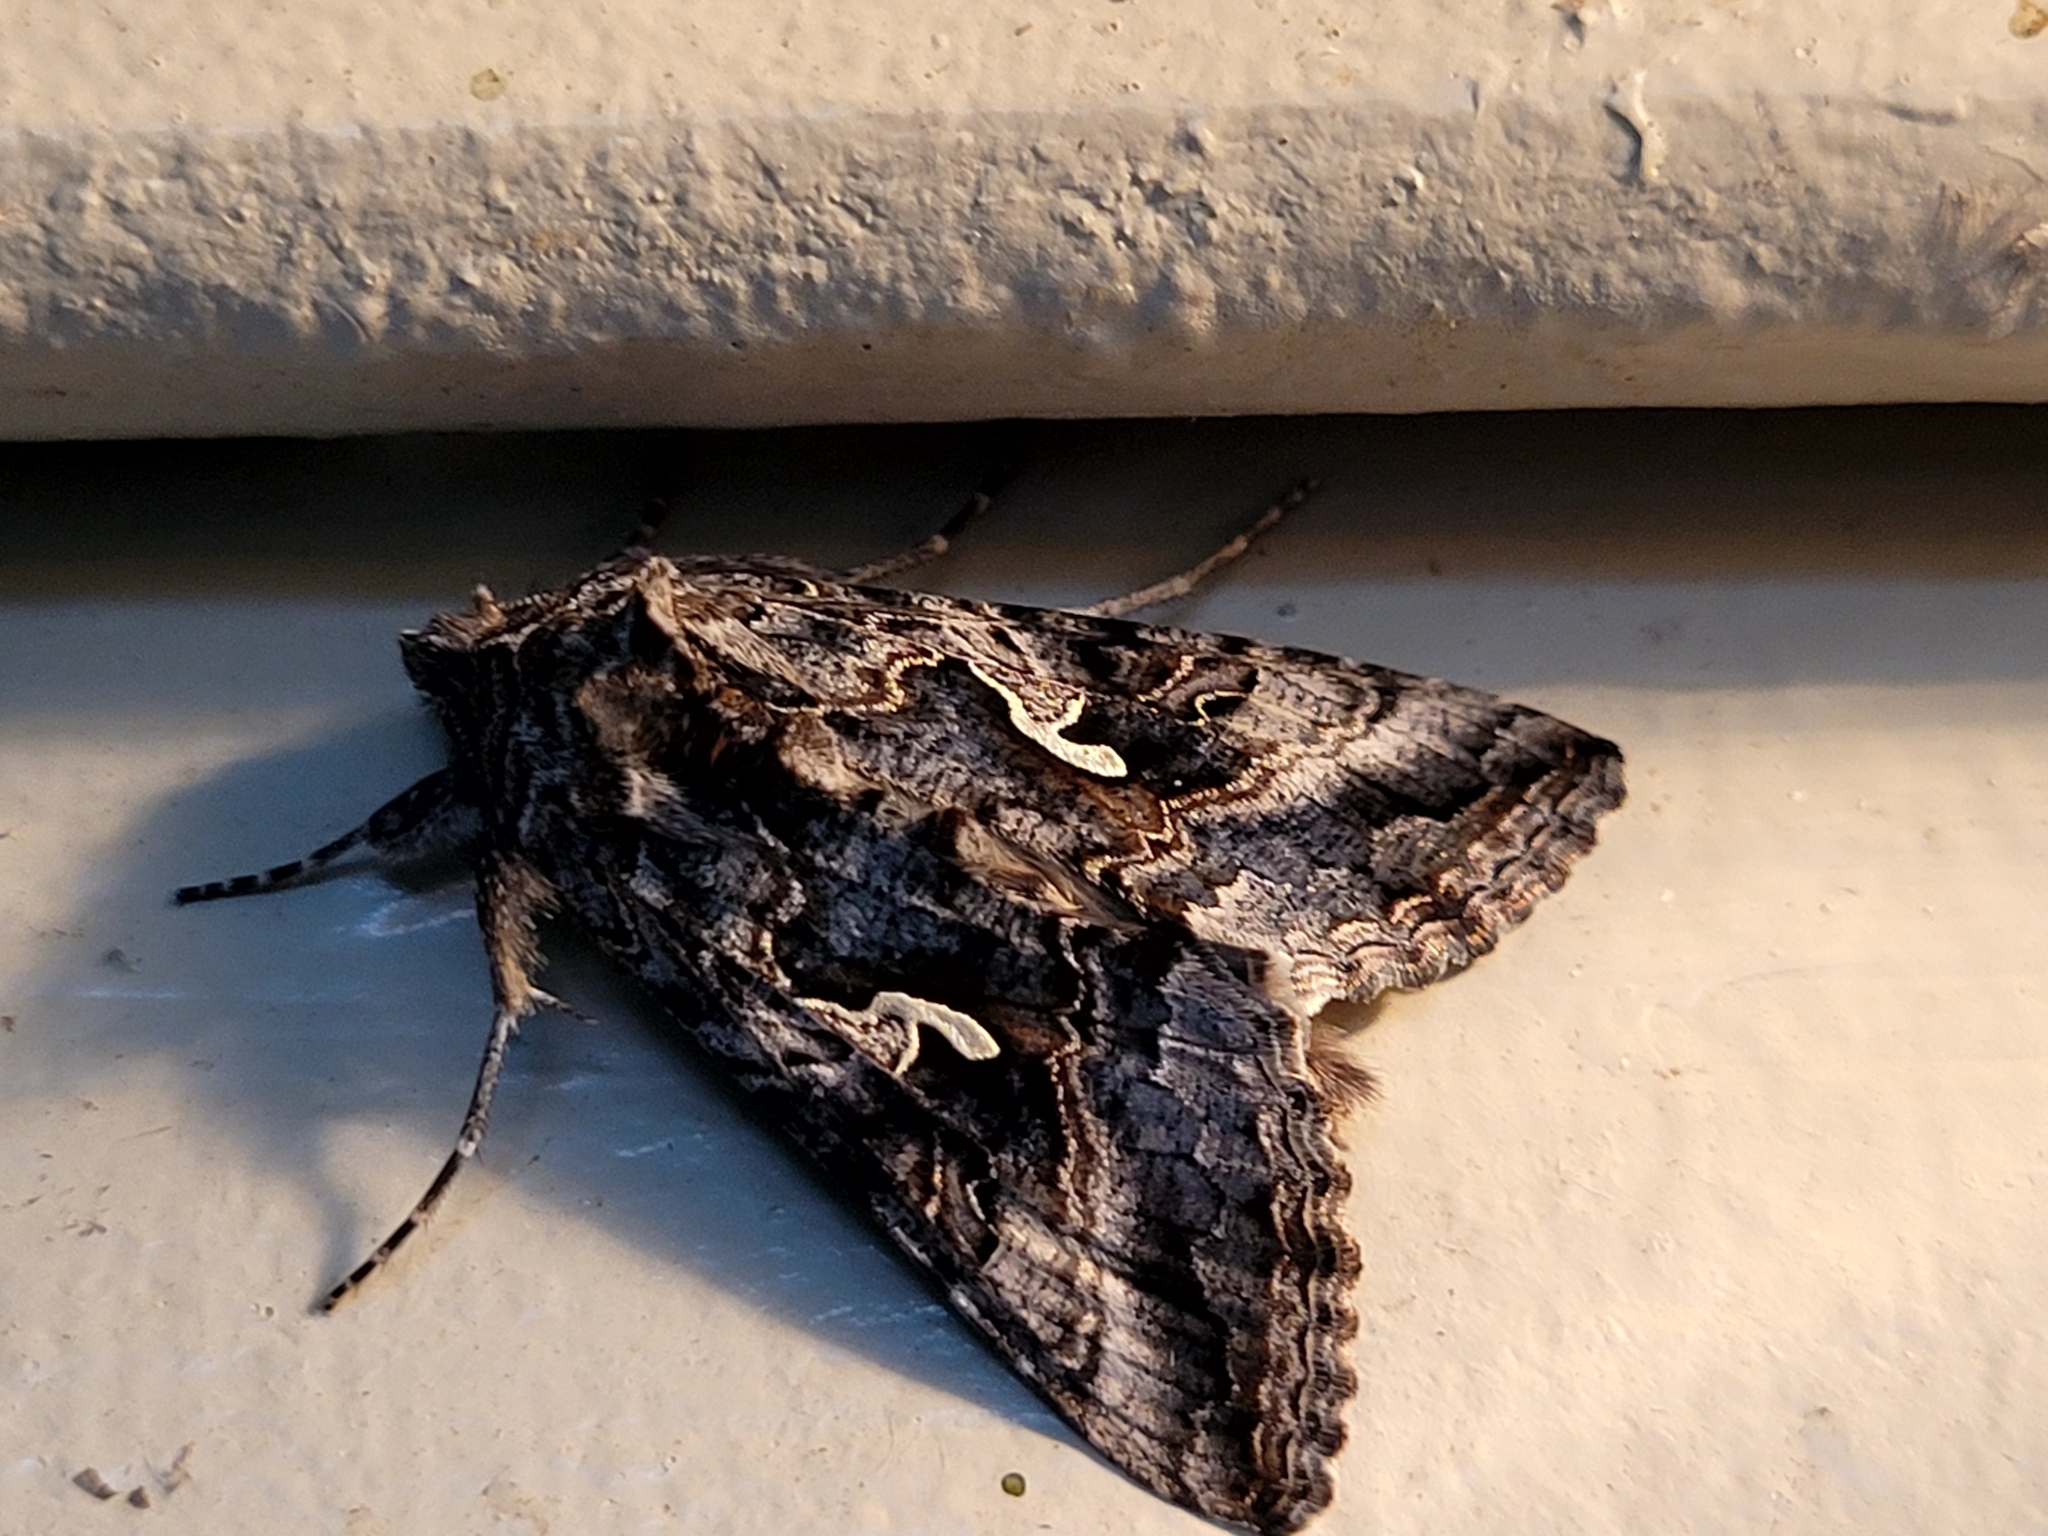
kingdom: Animalia
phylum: Arthropoda
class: Insecta
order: Lepidoptera
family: Noctuidae
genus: Autographa
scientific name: Autographa californica
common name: Alfalfa looper
